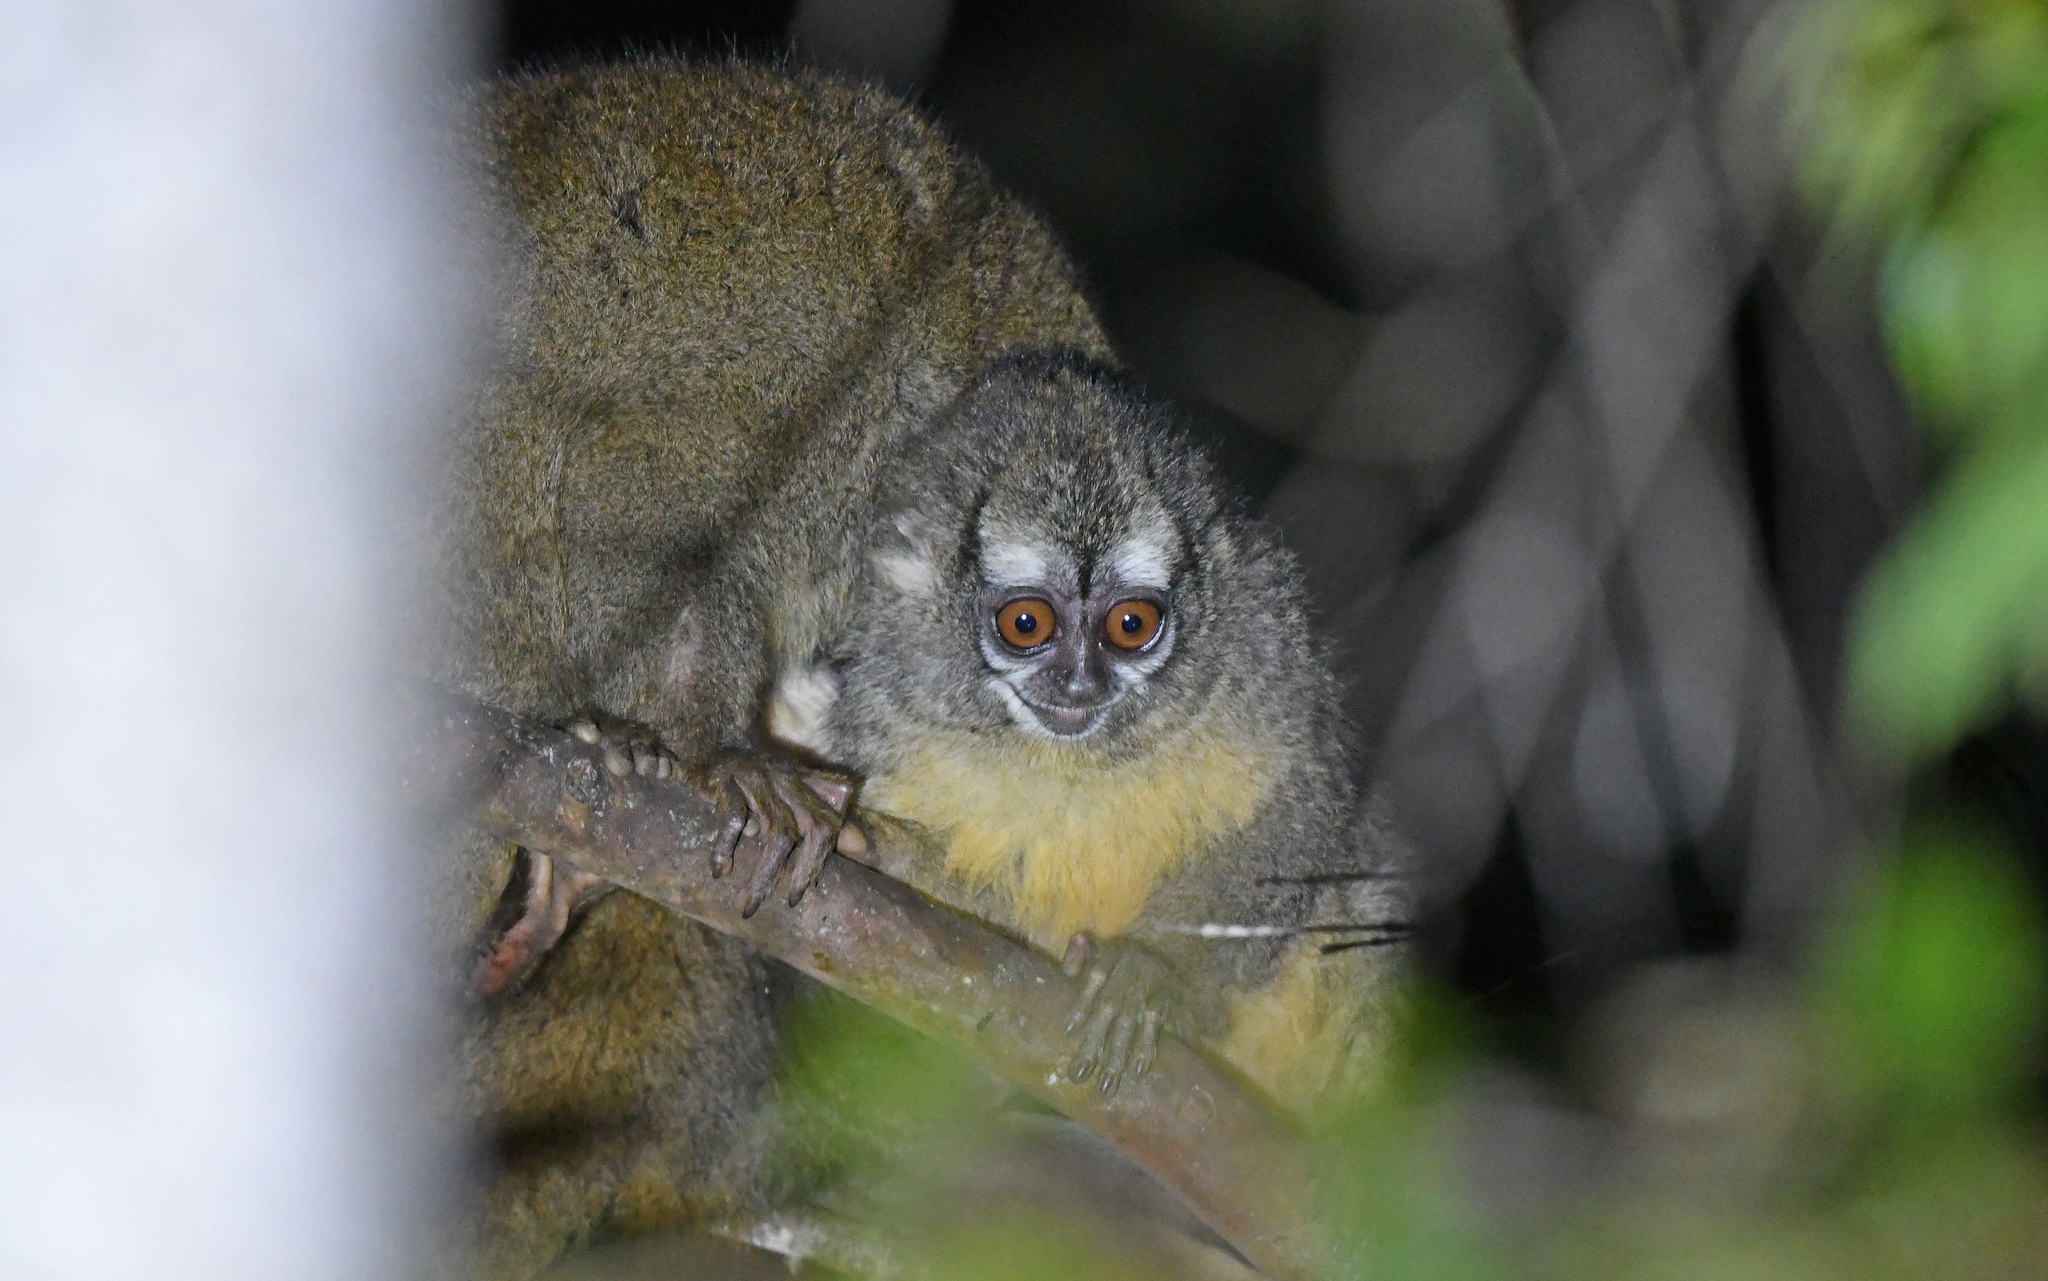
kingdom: Animalia
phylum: Chordata
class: Mammalia
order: Primates
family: Aotidae
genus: Aotus
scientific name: Aotus griseimembra
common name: Douroucouli a bras gris
